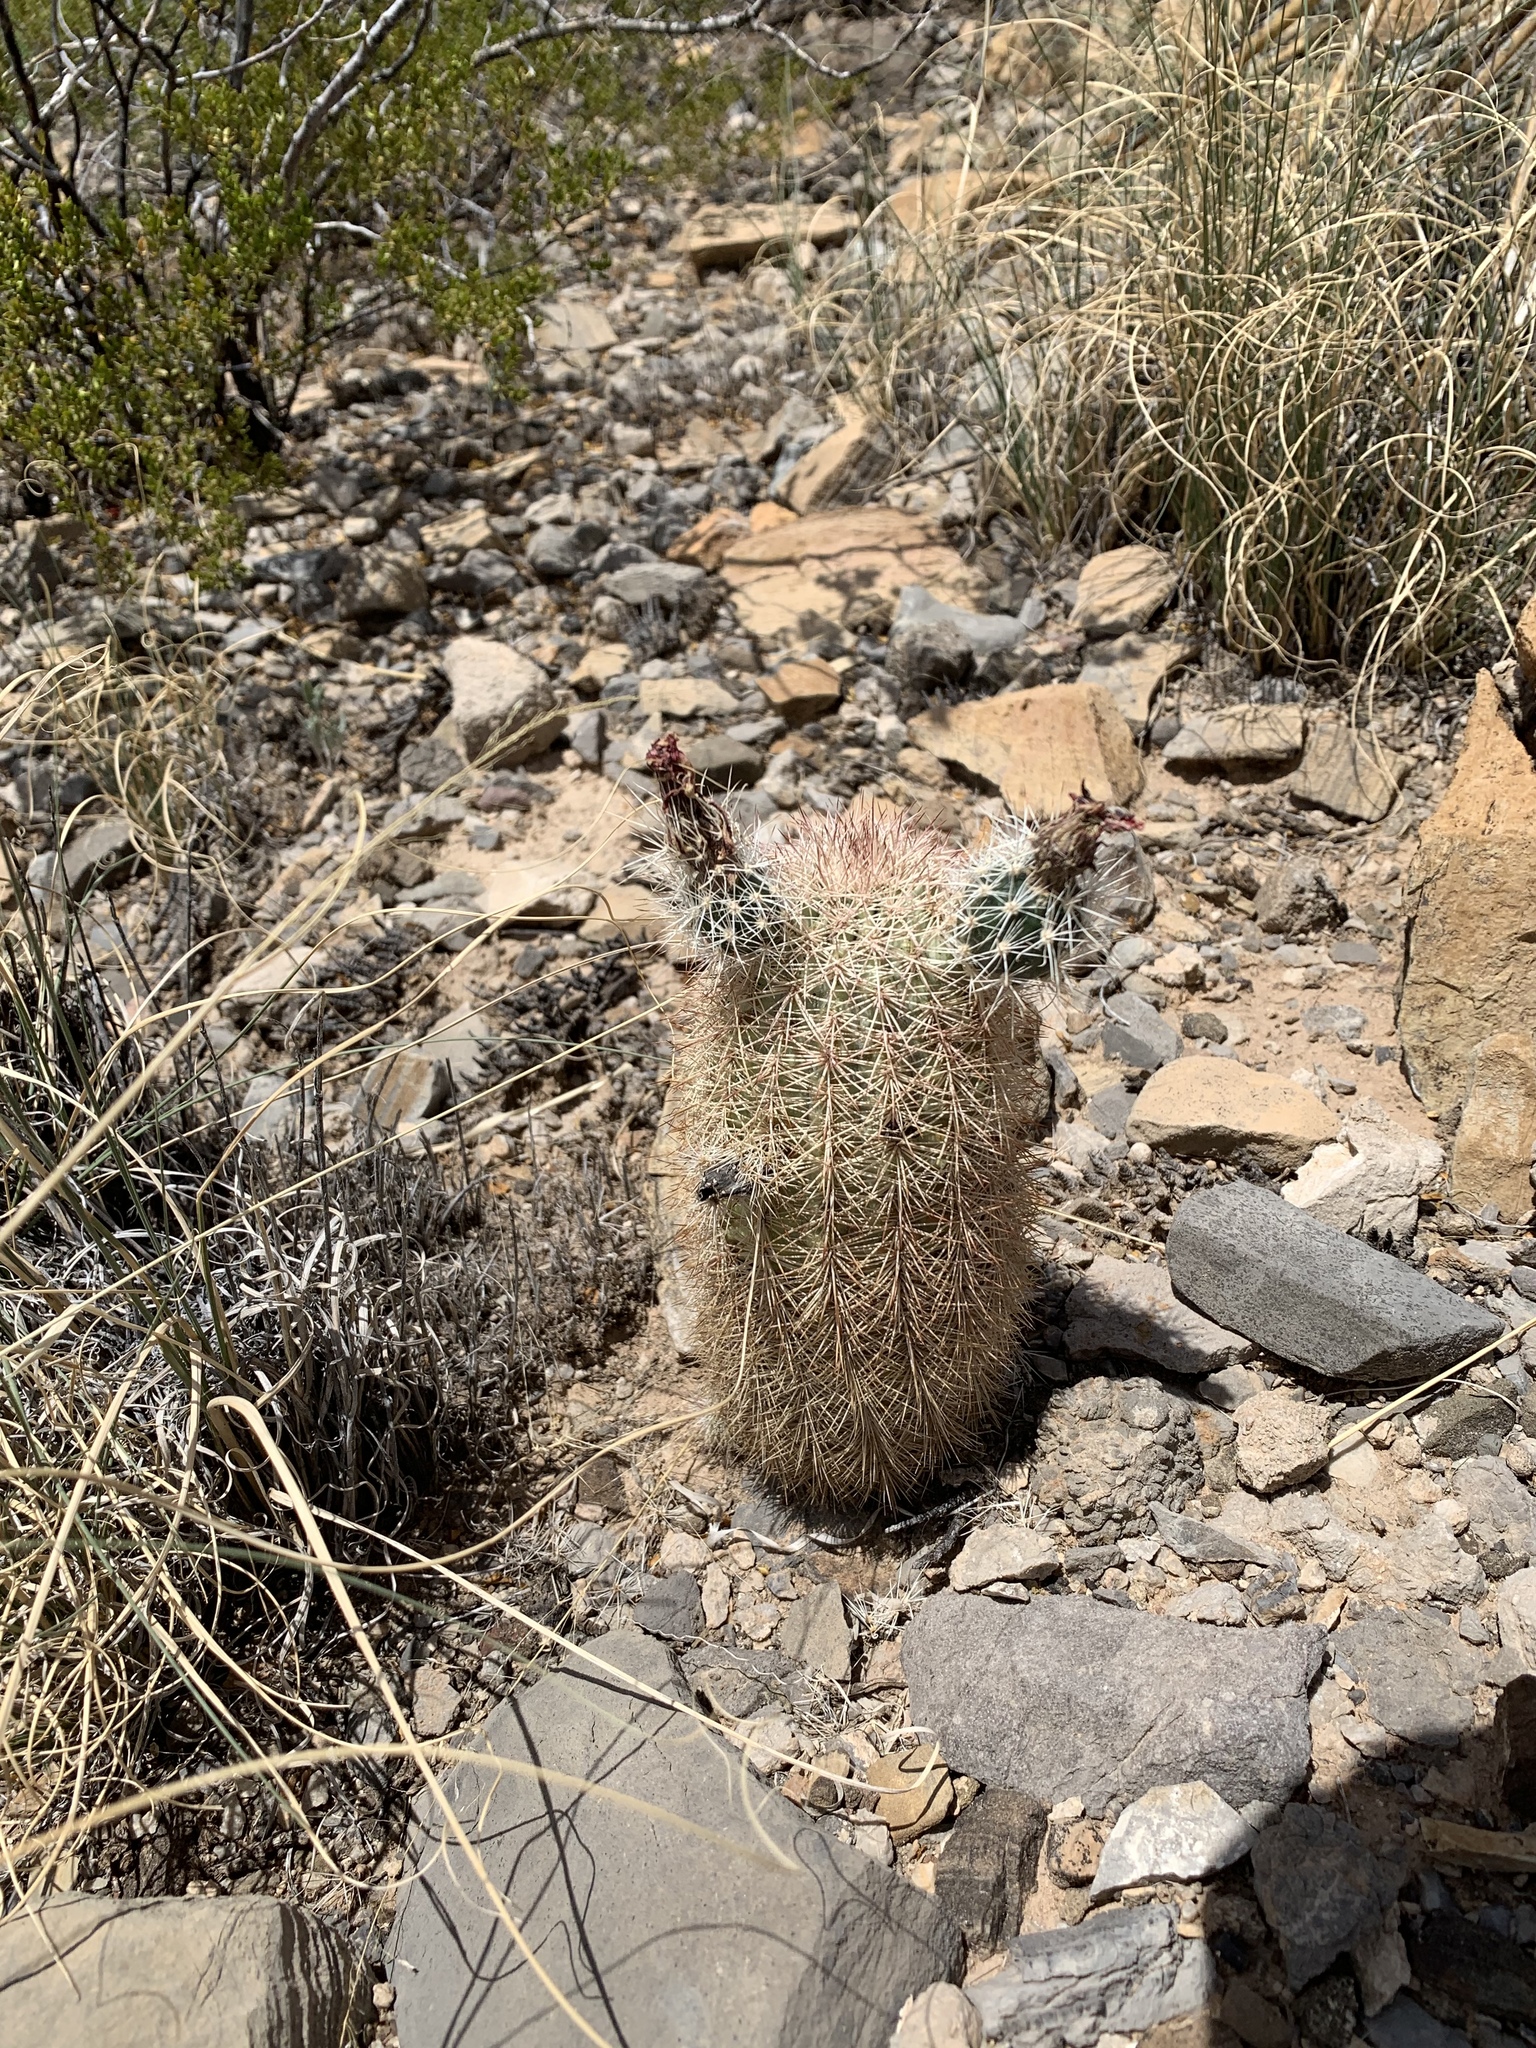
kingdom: Plantae
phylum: Tracheophyta
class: Magnoliopsida
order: Caryophyllales
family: Cactaceae
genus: Echinocereus
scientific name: Echinocereus dasyacanthus
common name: Spiny hedgehog cactus
